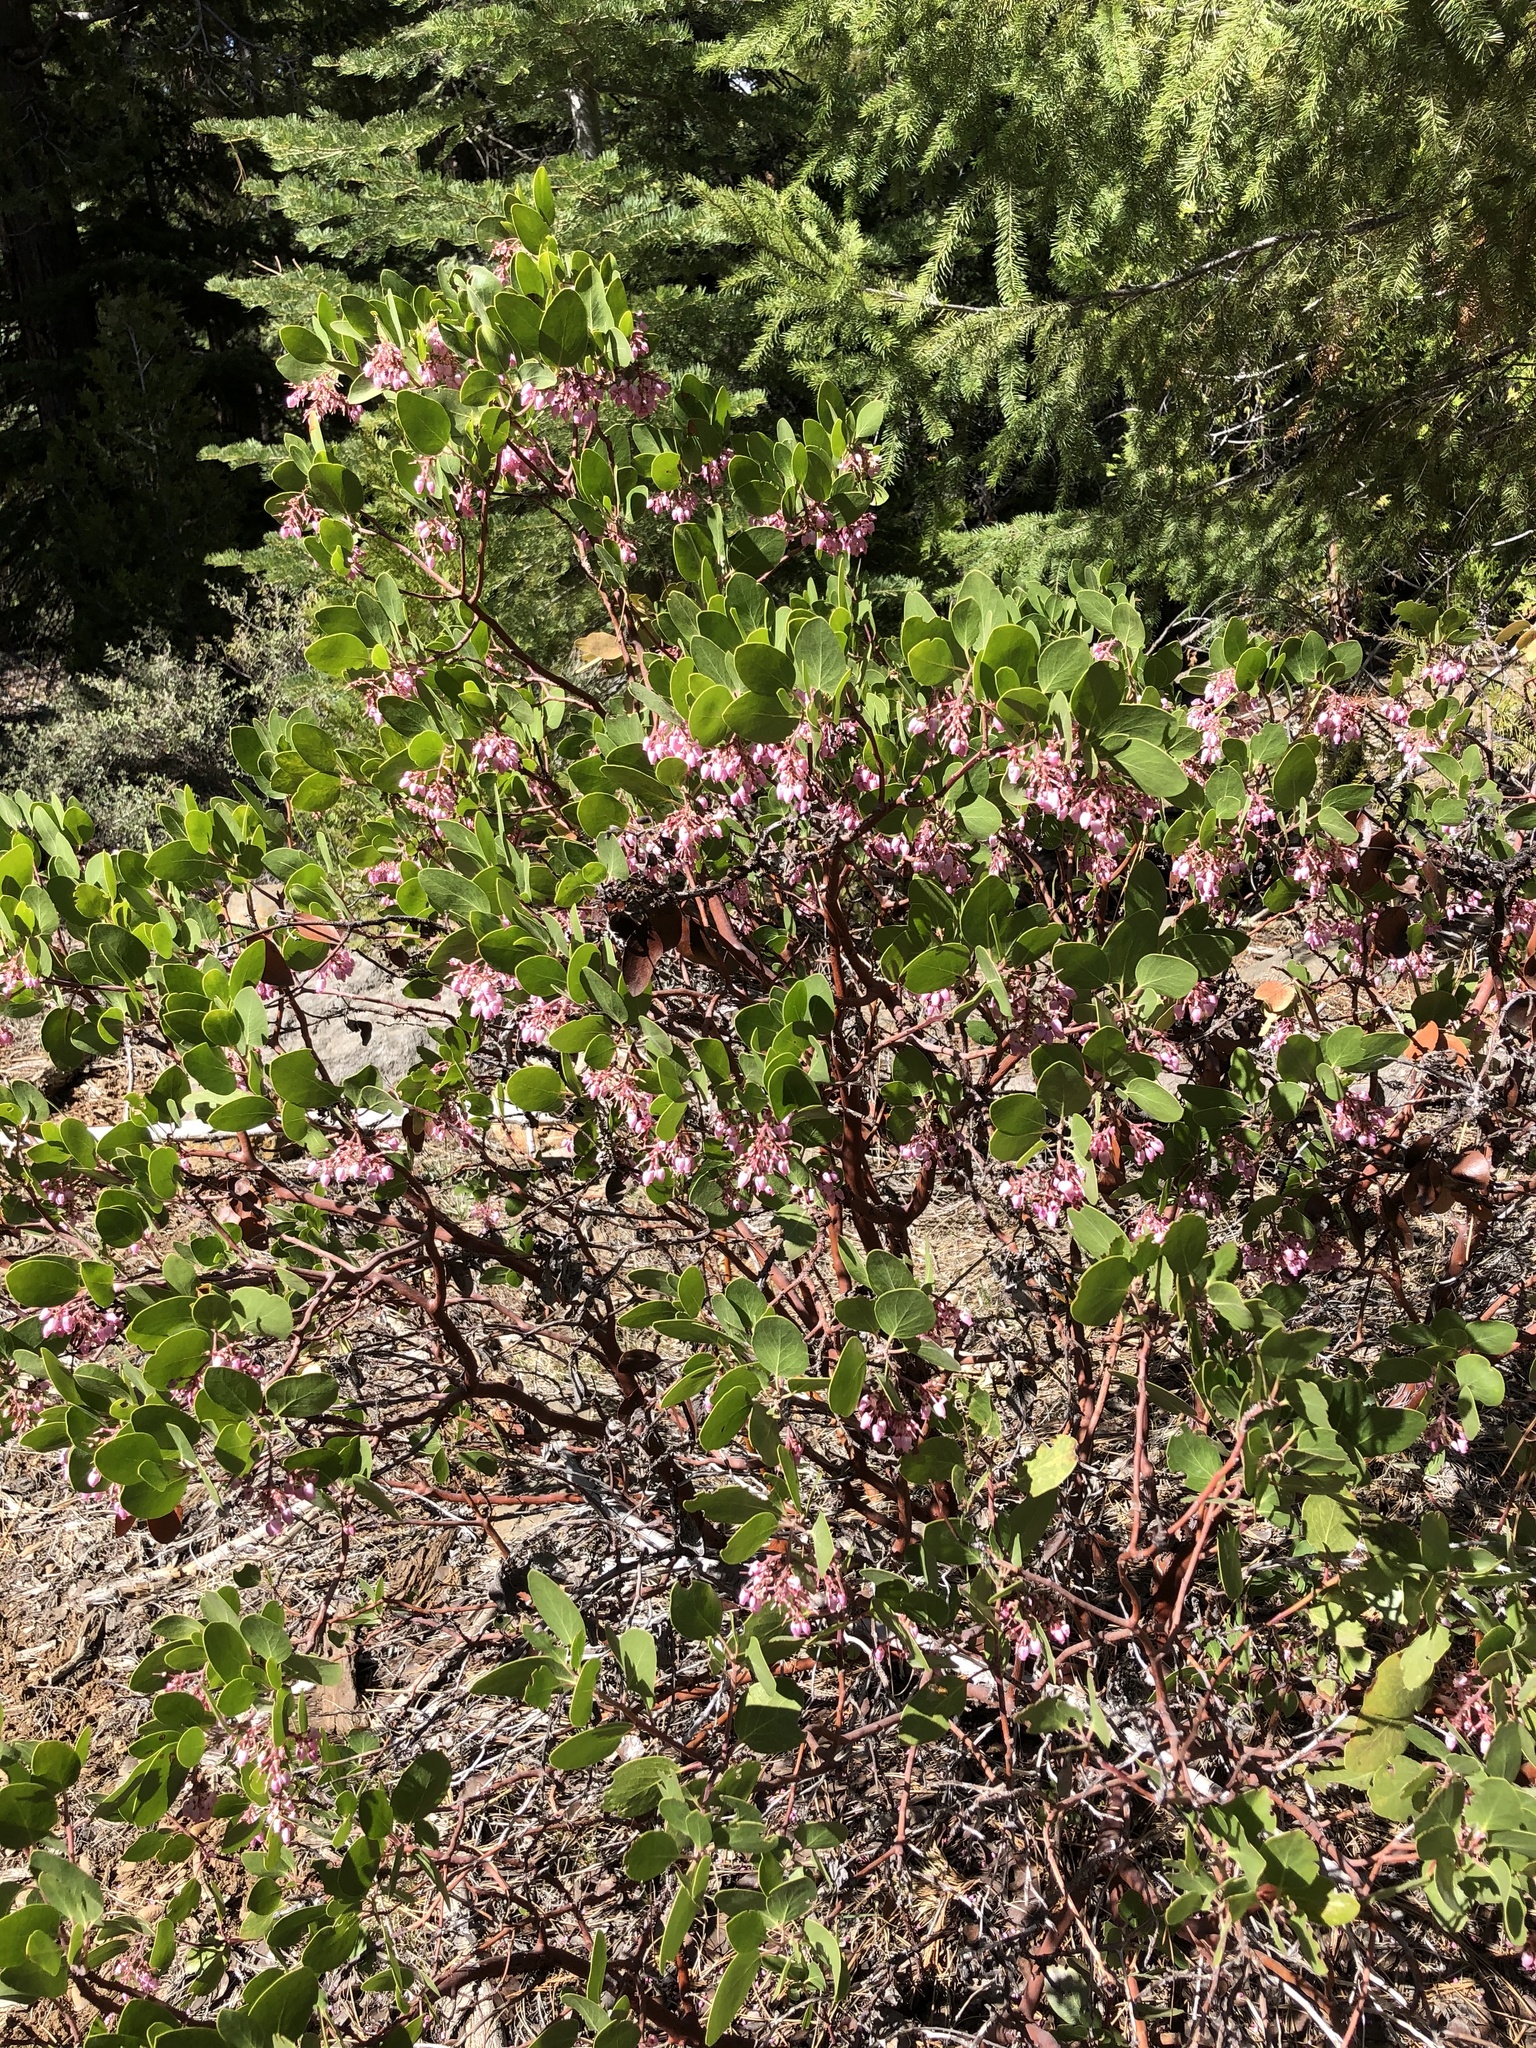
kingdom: Plantae
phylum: Tracheophyta
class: Magnoliopsida
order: Ericales
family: Ericaceae
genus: Arctostaphylos
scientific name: Arctostaphylos patula
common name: Green-leaf manzanita
